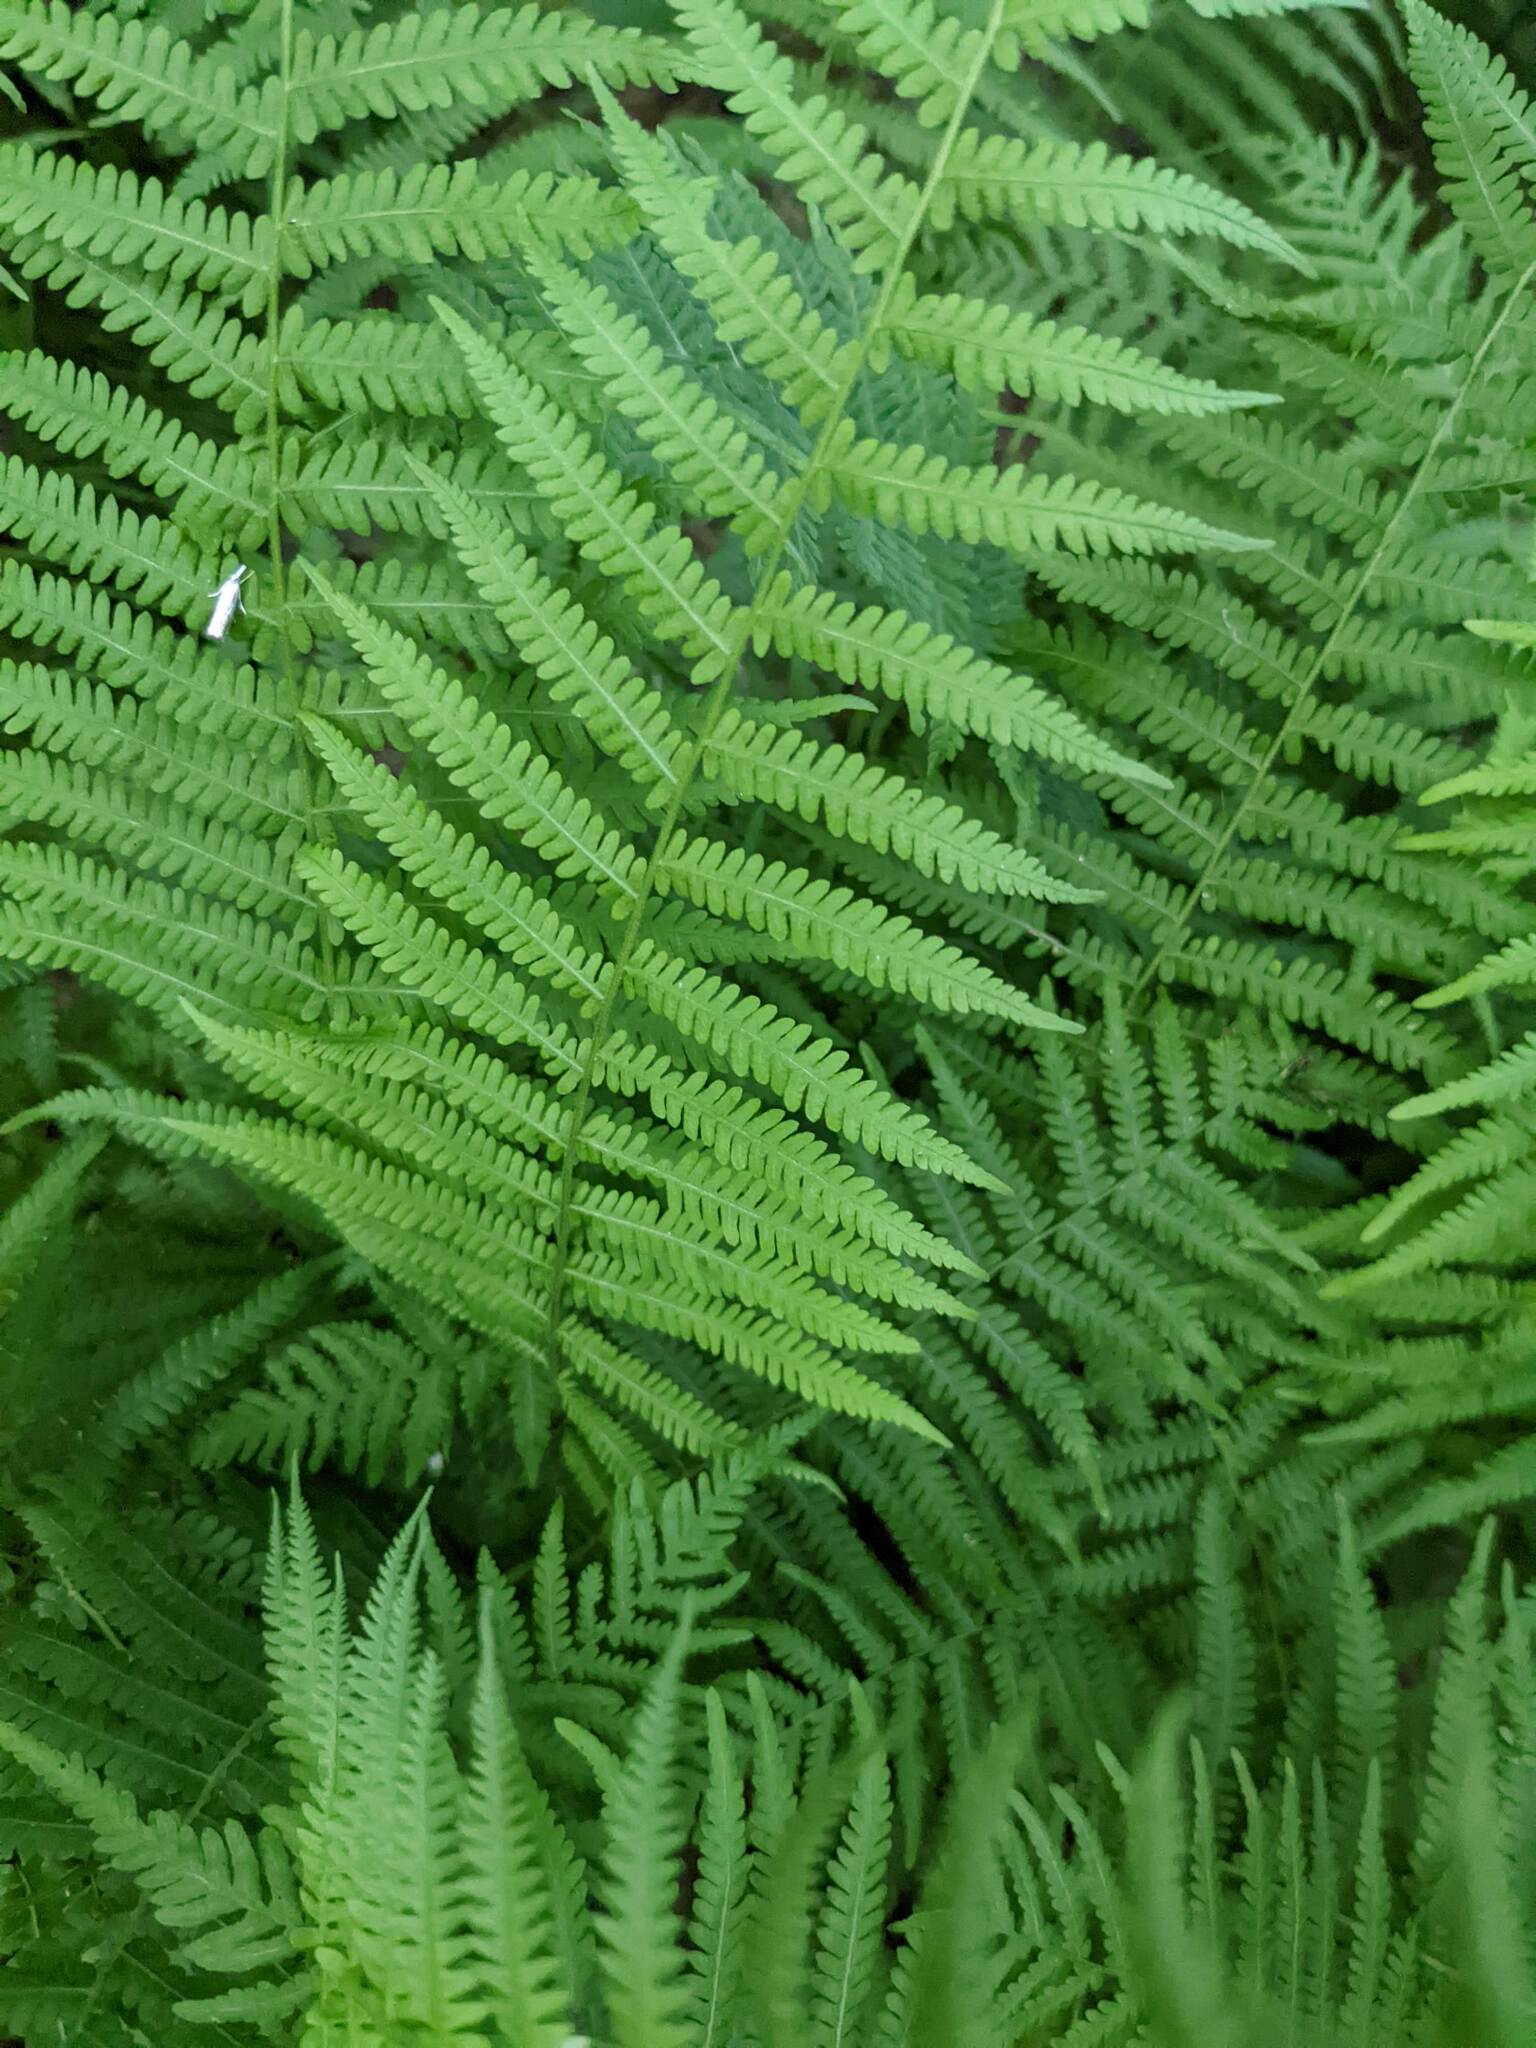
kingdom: Plantae
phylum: Tracheophyta
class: Polypodiopsida
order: Polypodiales
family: Thelypteridaceae
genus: Amauropelta
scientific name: Amauropelta noveboracensis
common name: New york fern
